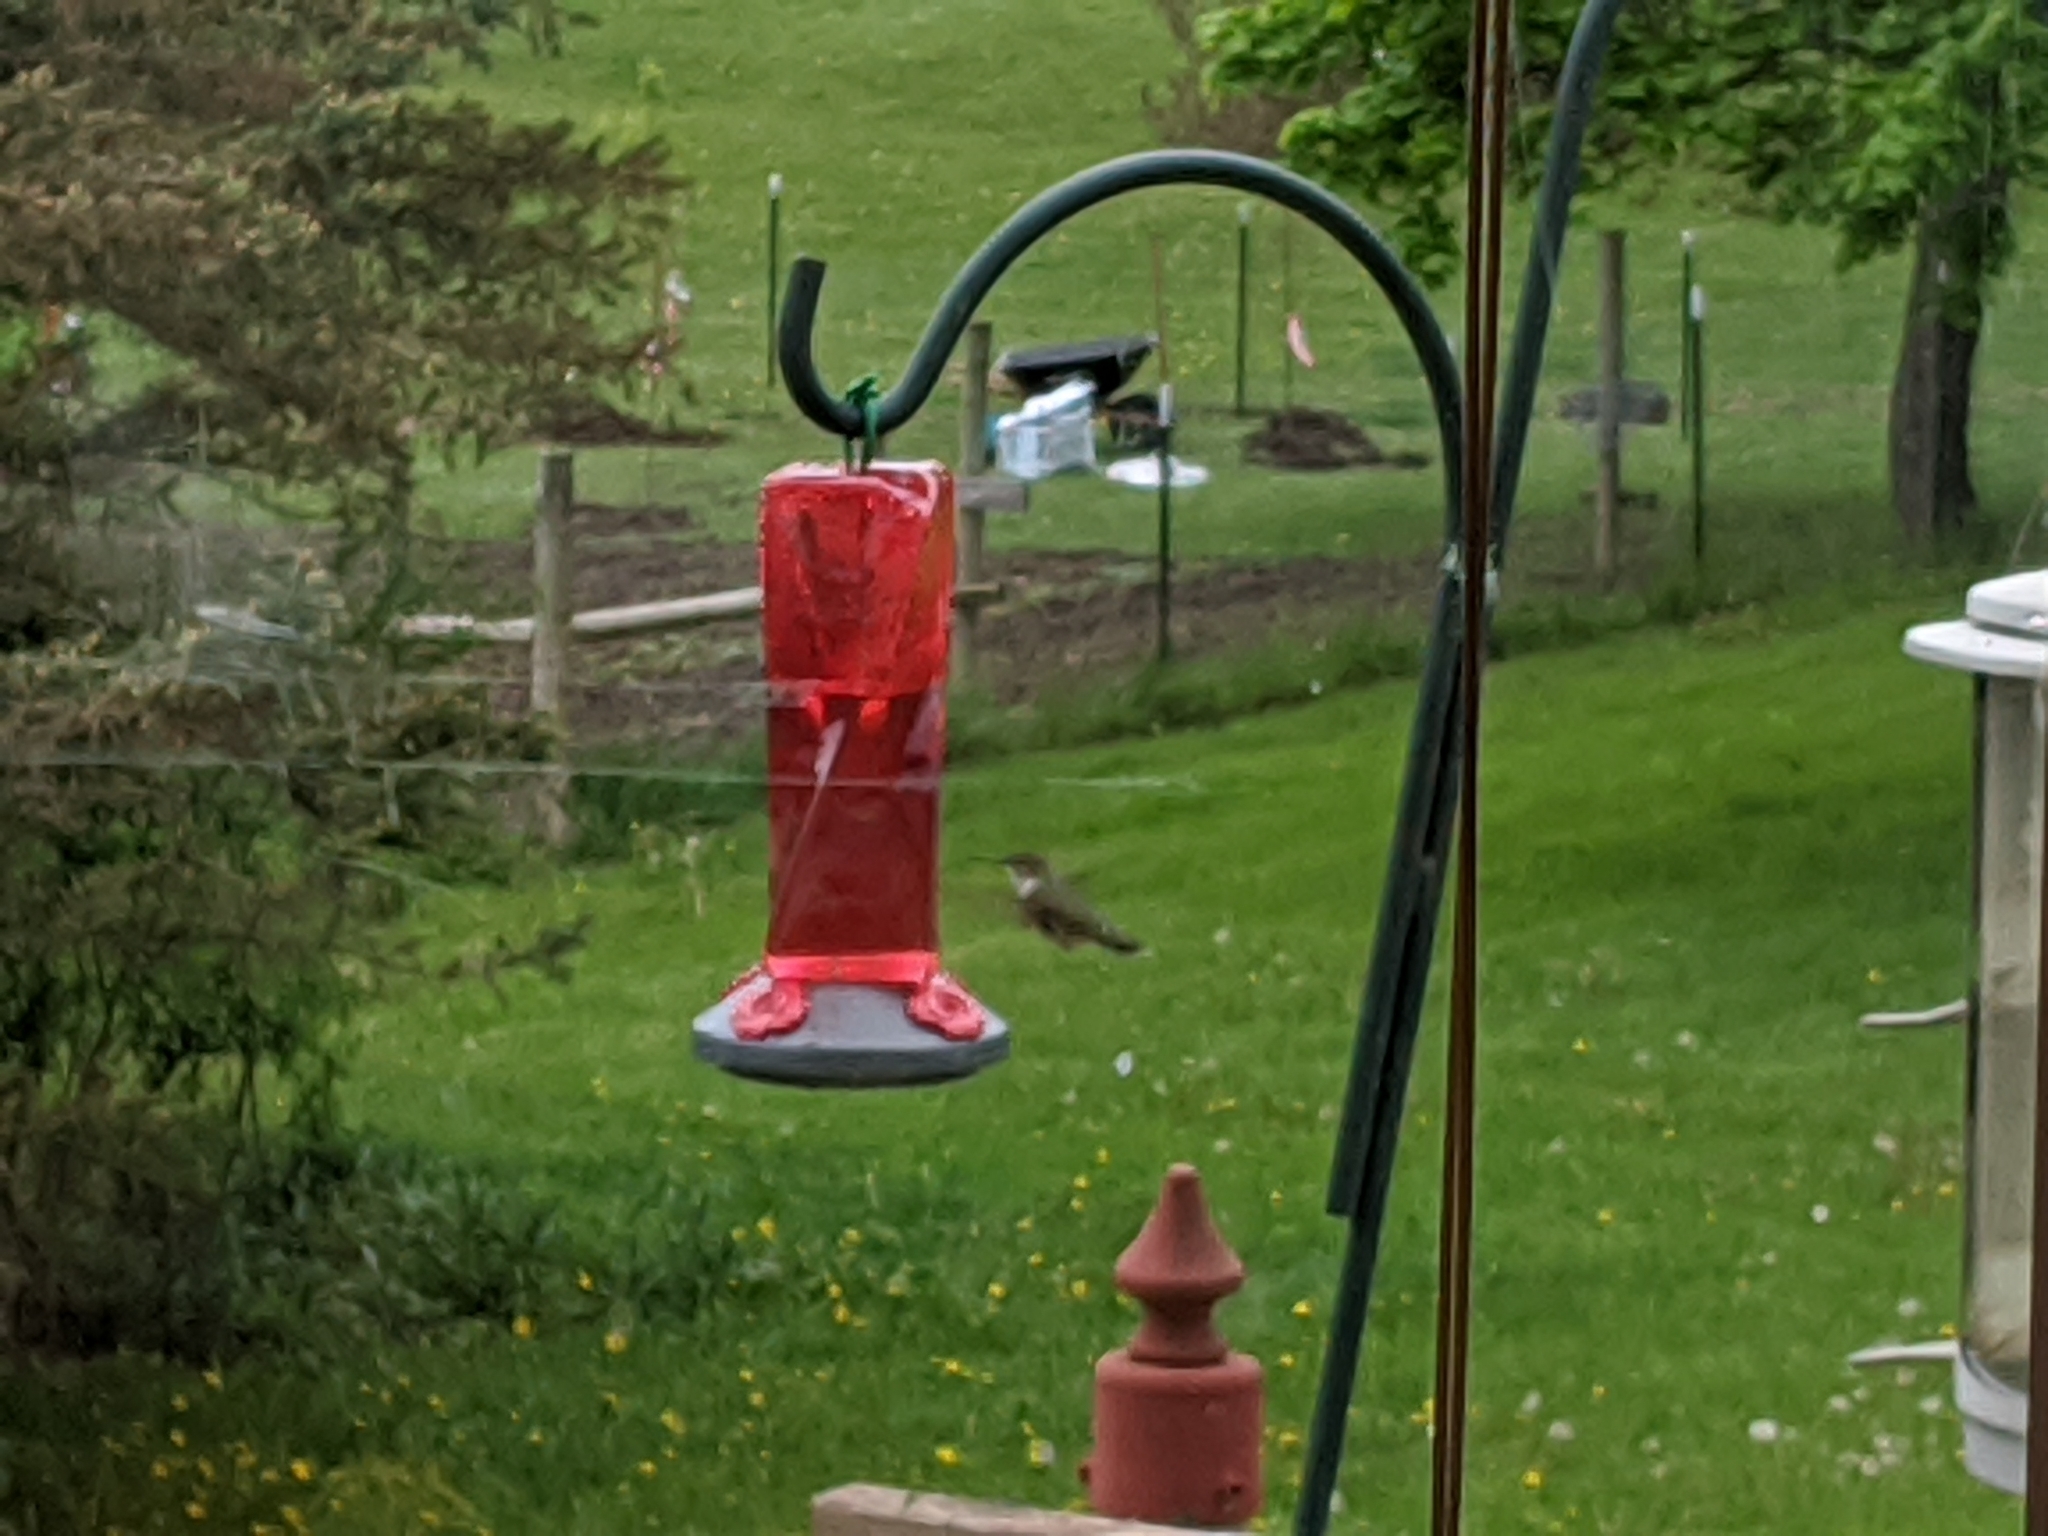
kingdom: Animalia
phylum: Chordata
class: Aves
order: Apodiformes
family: Trochilidae
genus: Archilochus
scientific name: Archilochus colubris
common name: Ruby-throated hummingbird
